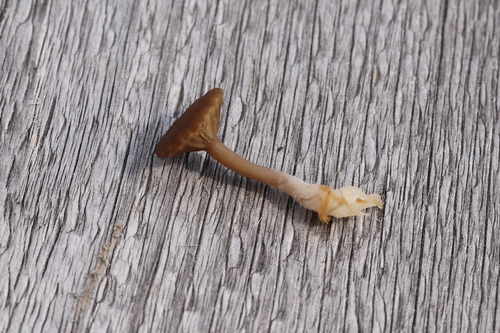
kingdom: Fungi
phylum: Basidiomycota
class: Agaricomycetes
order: Agaricales
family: Hygrophoraceae
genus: Arrhenia
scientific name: Arrhenia
